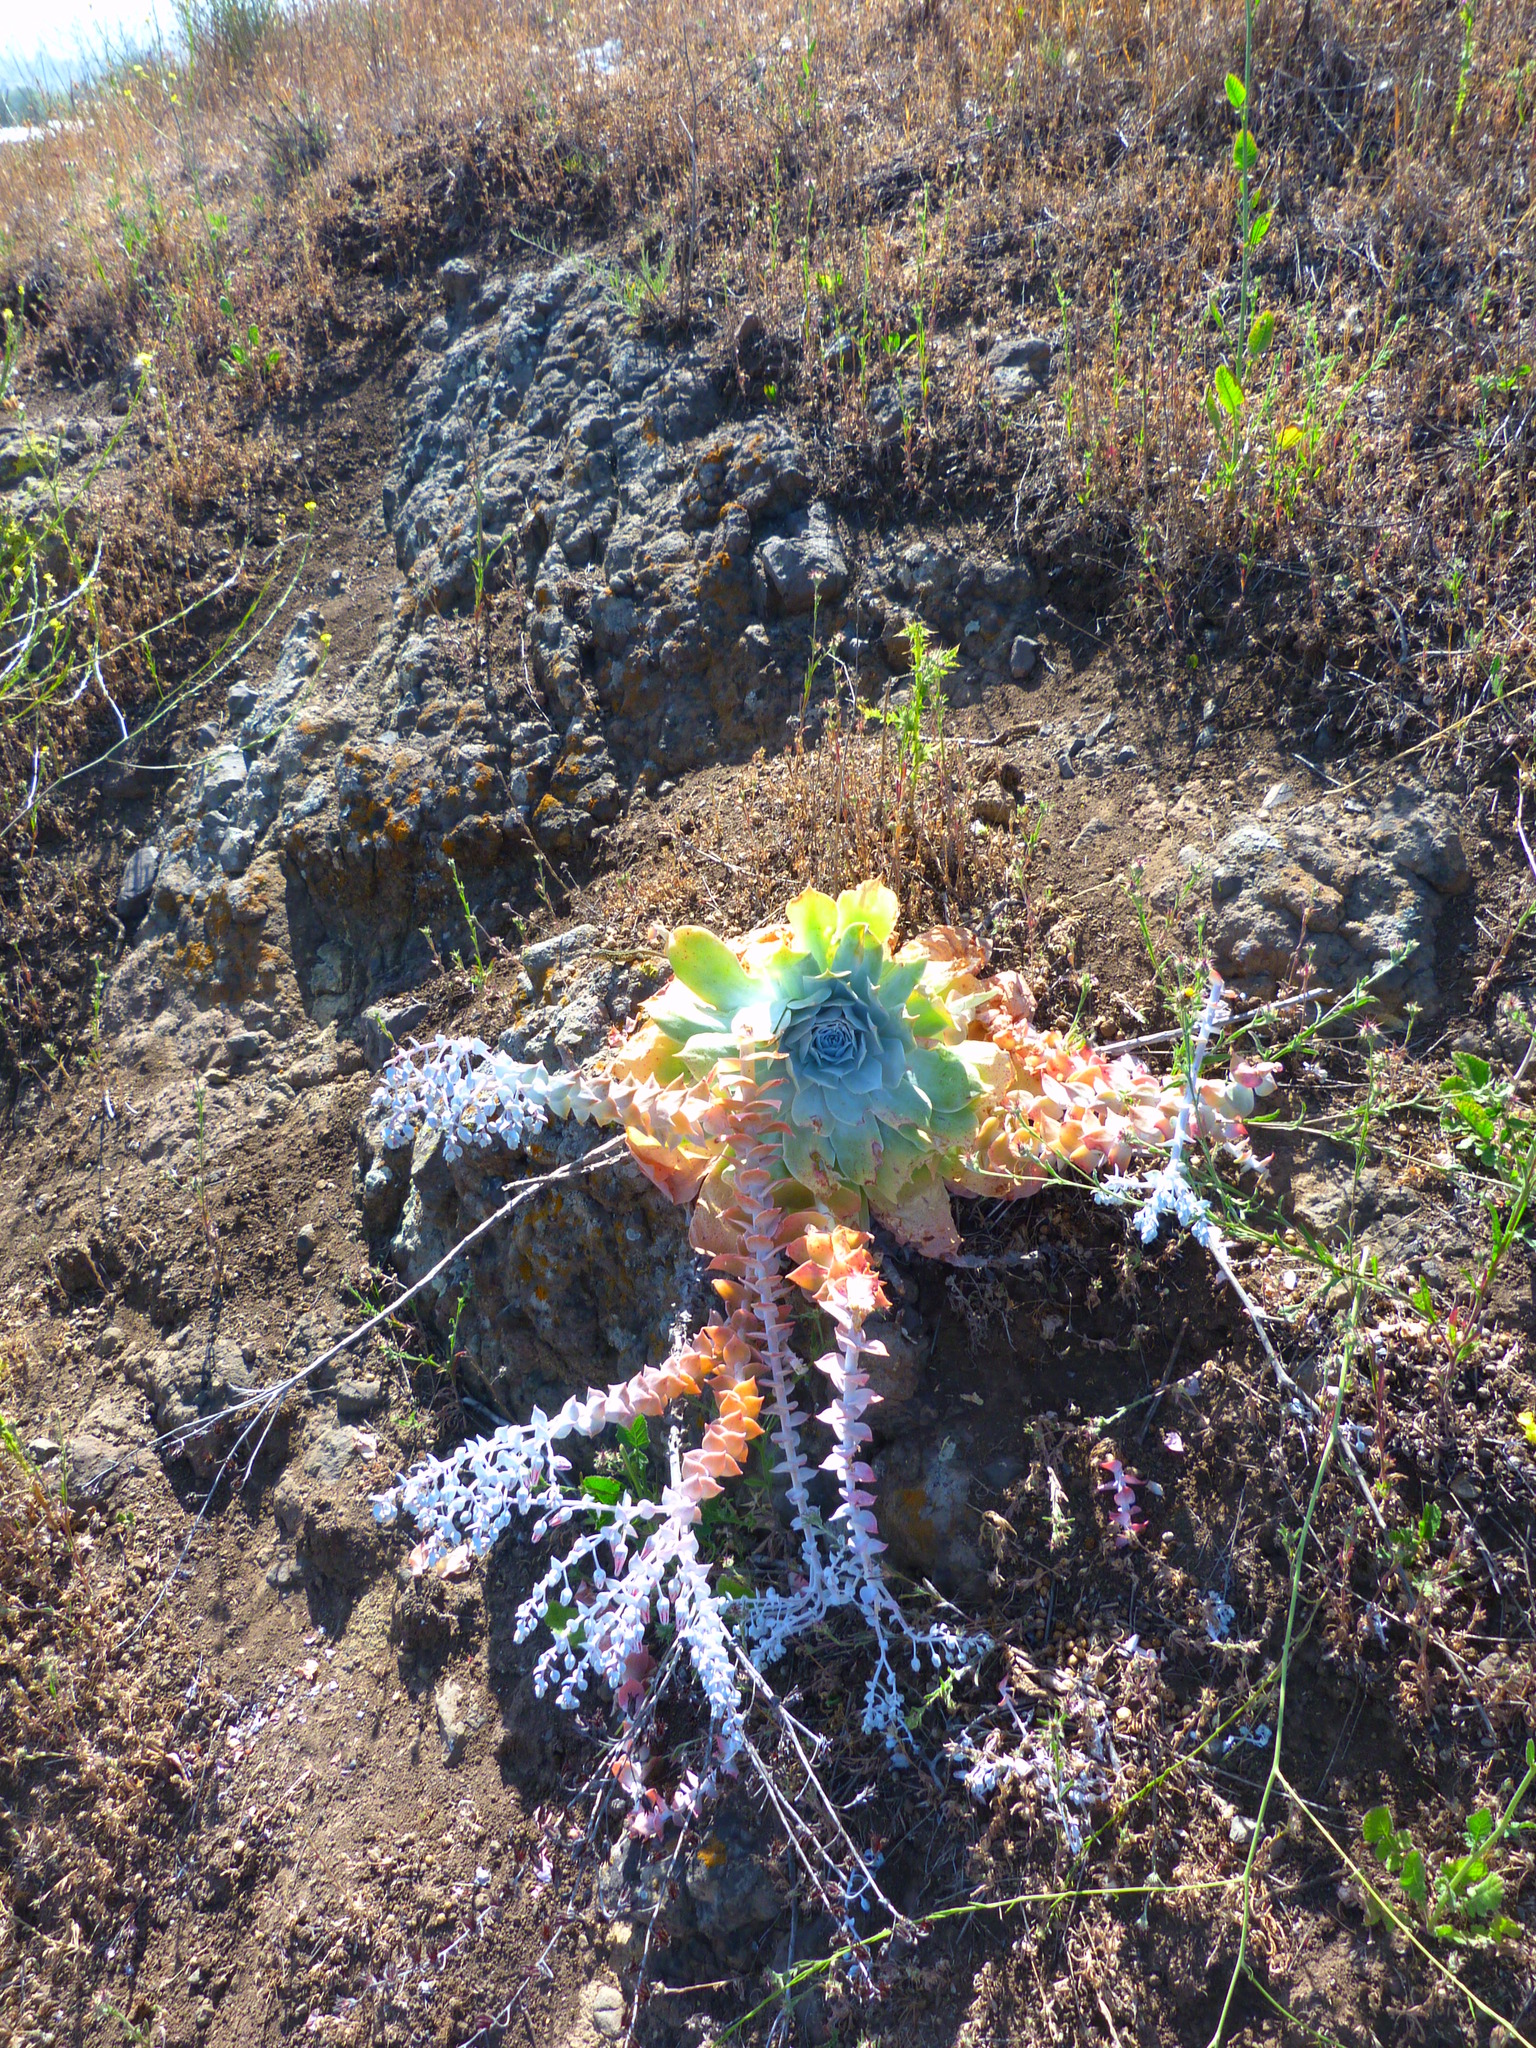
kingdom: Plantae
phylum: Tracheophyta
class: Magnoliopsida
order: Saxifragales
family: Crassulaceae
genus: Dudleya
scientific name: Dudleya pulverulenta
